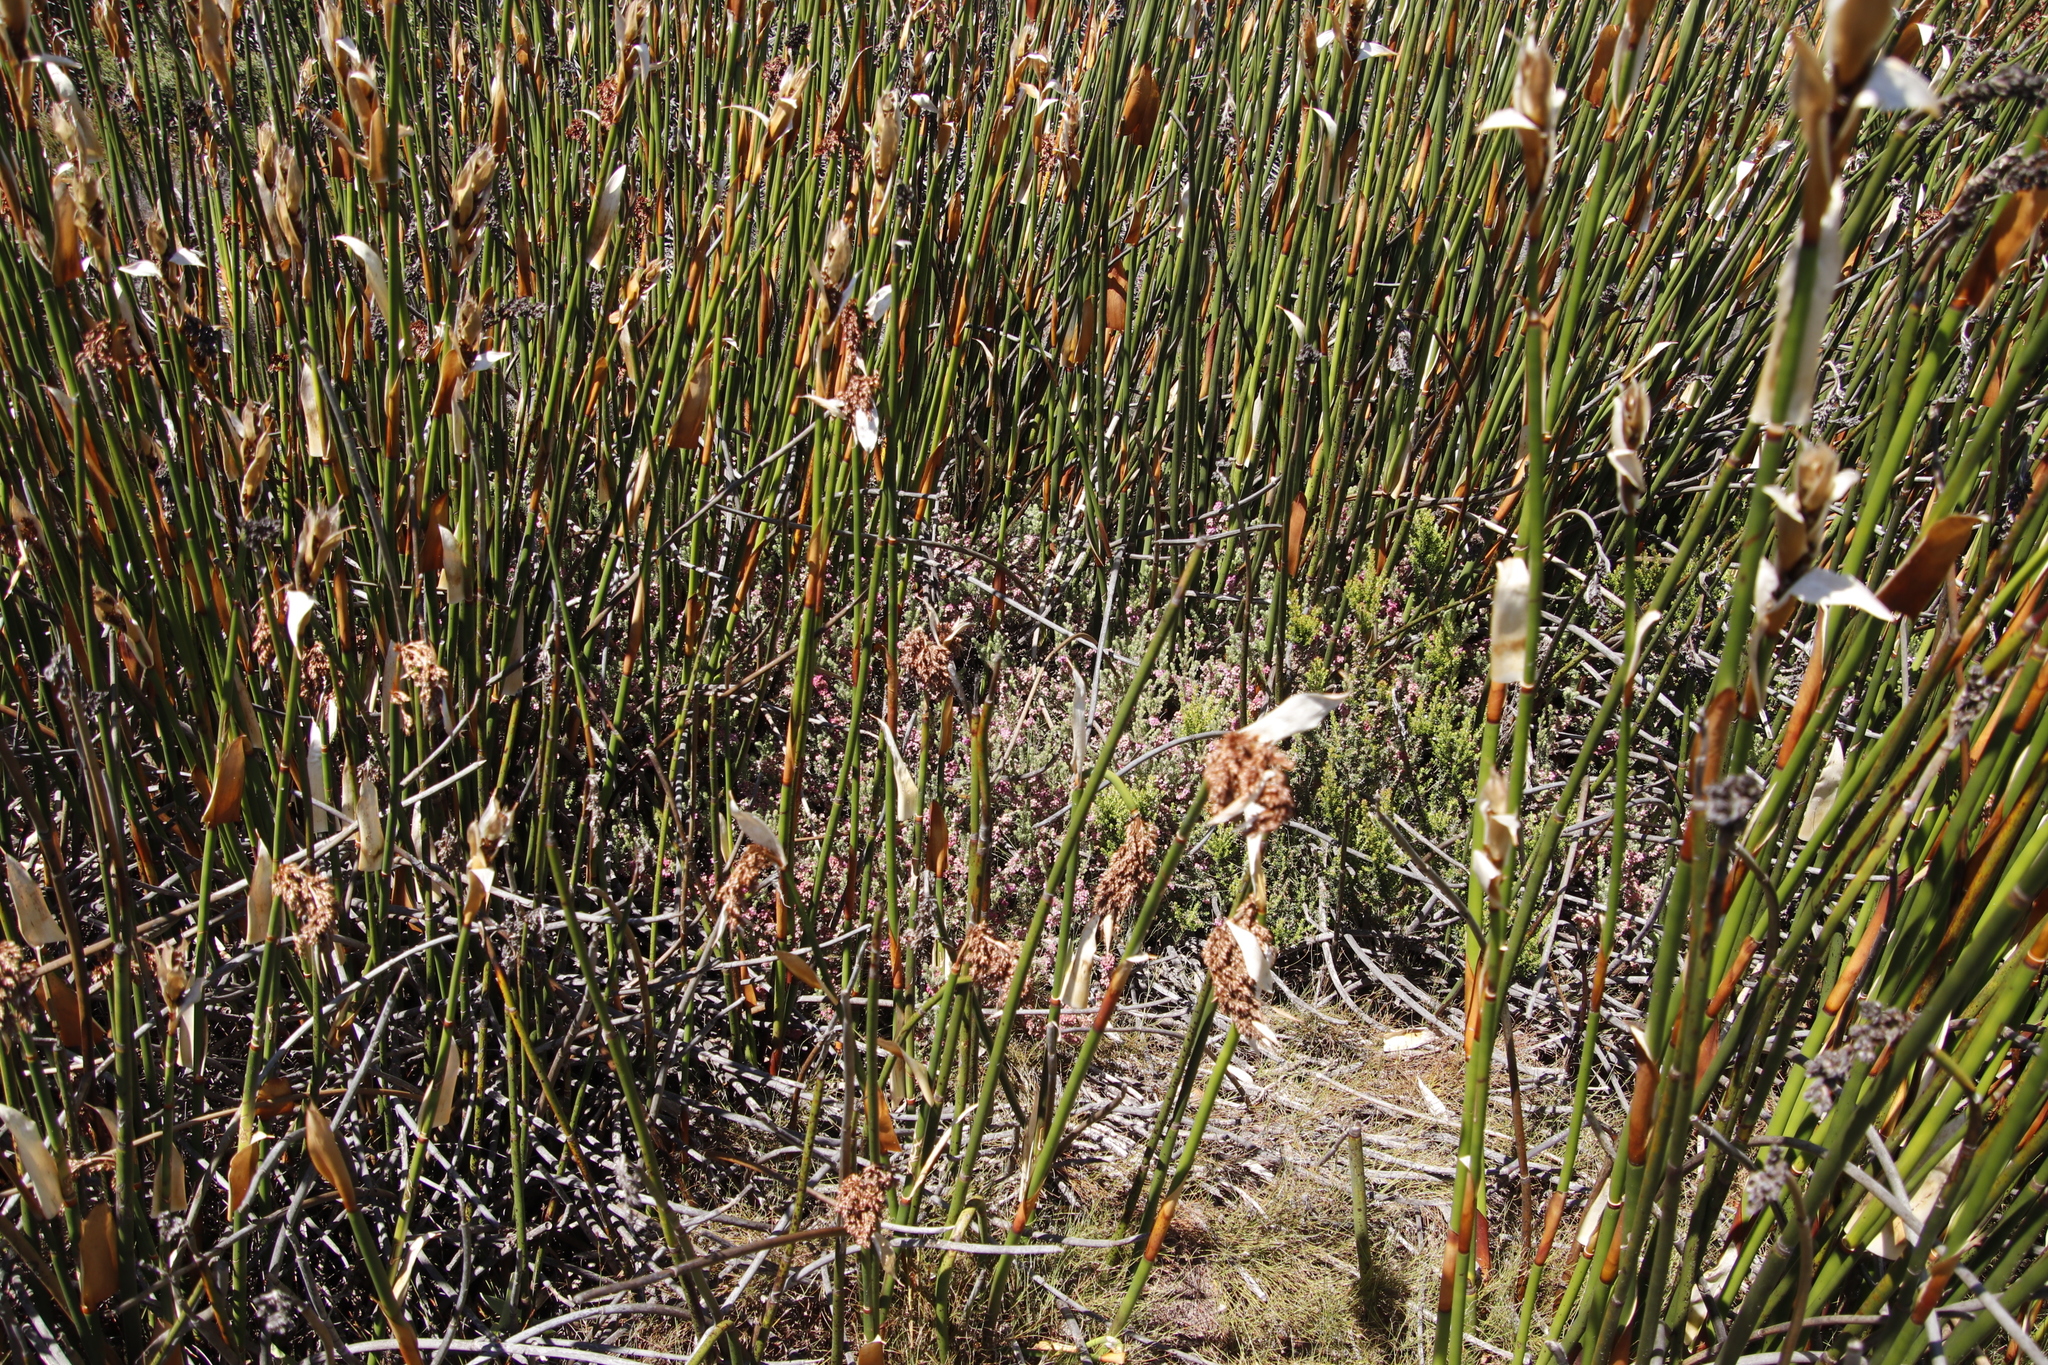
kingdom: Plantae
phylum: Tracheophyta
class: Liliopsida
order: Poales
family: Restionaceae
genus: Elegia
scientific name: Elegia mucronata
